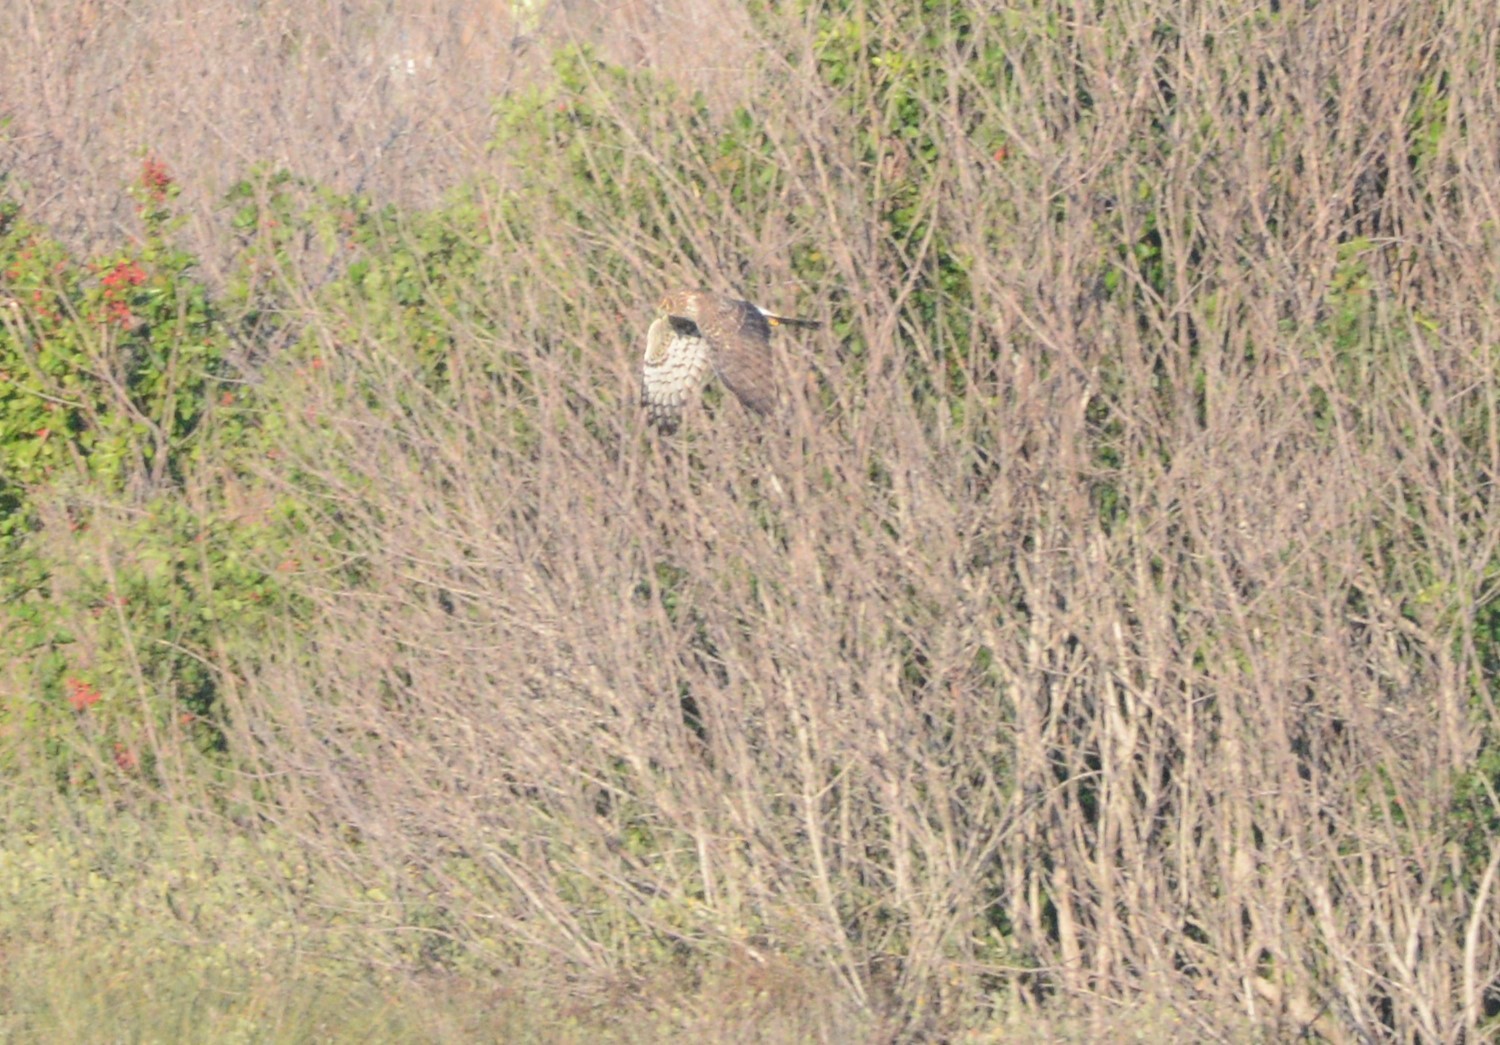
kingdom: Animalia
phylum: Chordata
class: Aves
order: Accipitriformes
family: Accipitridae
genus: Circus
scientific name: Circus cyaneus
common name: Hen harrier
